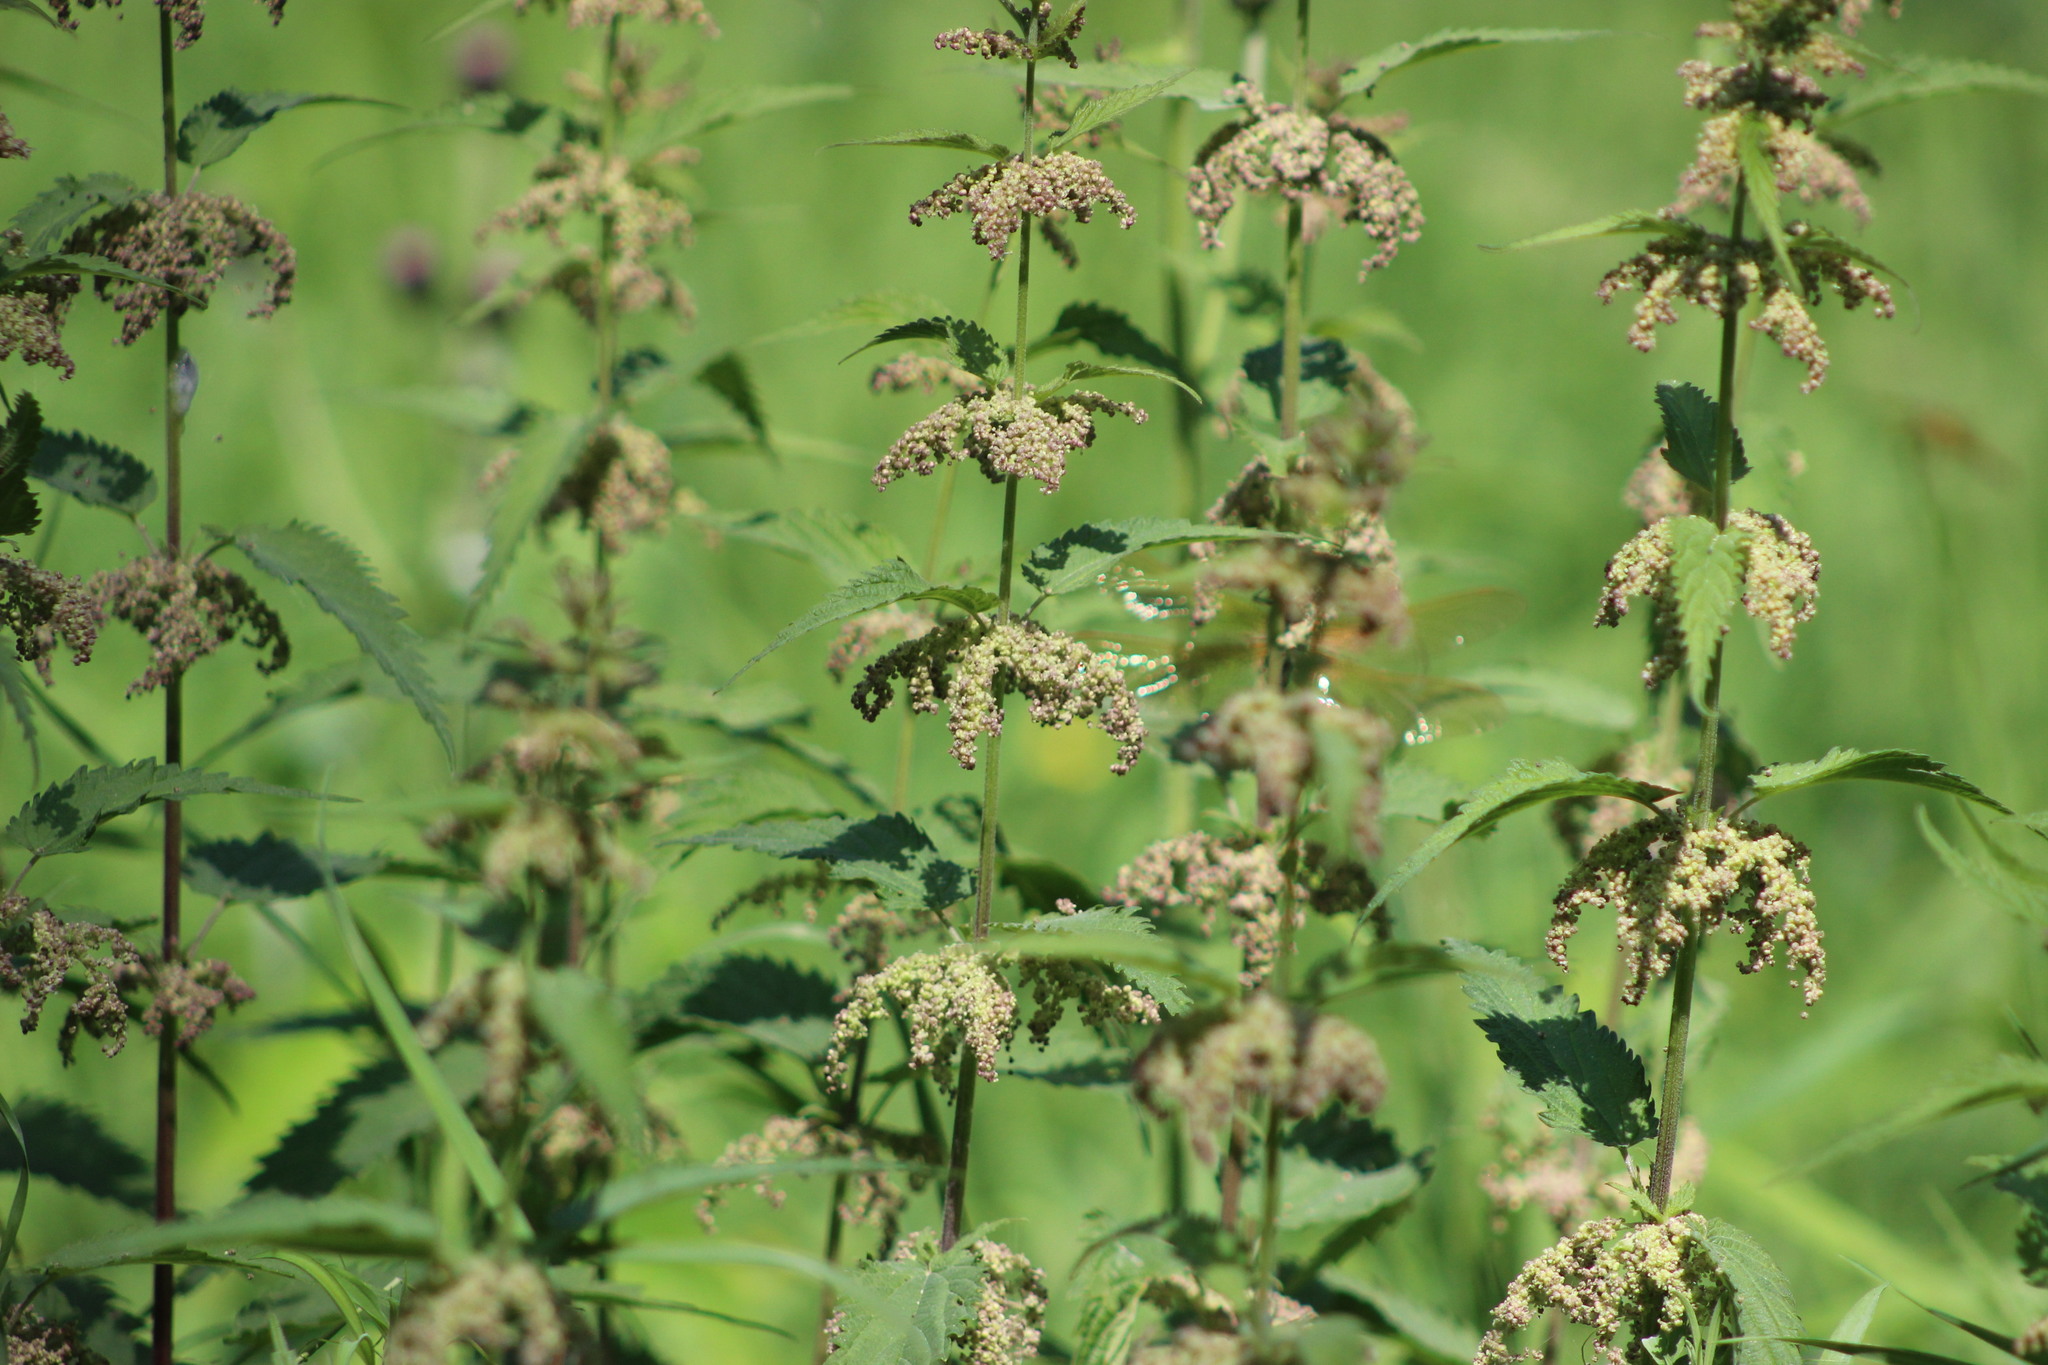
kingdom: Plantae
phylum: Tracheophyta
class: Magnoliopsida
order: Rosales
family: Urticaceae
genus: Urtica
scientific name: Urtica dioica
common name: Common nettle
